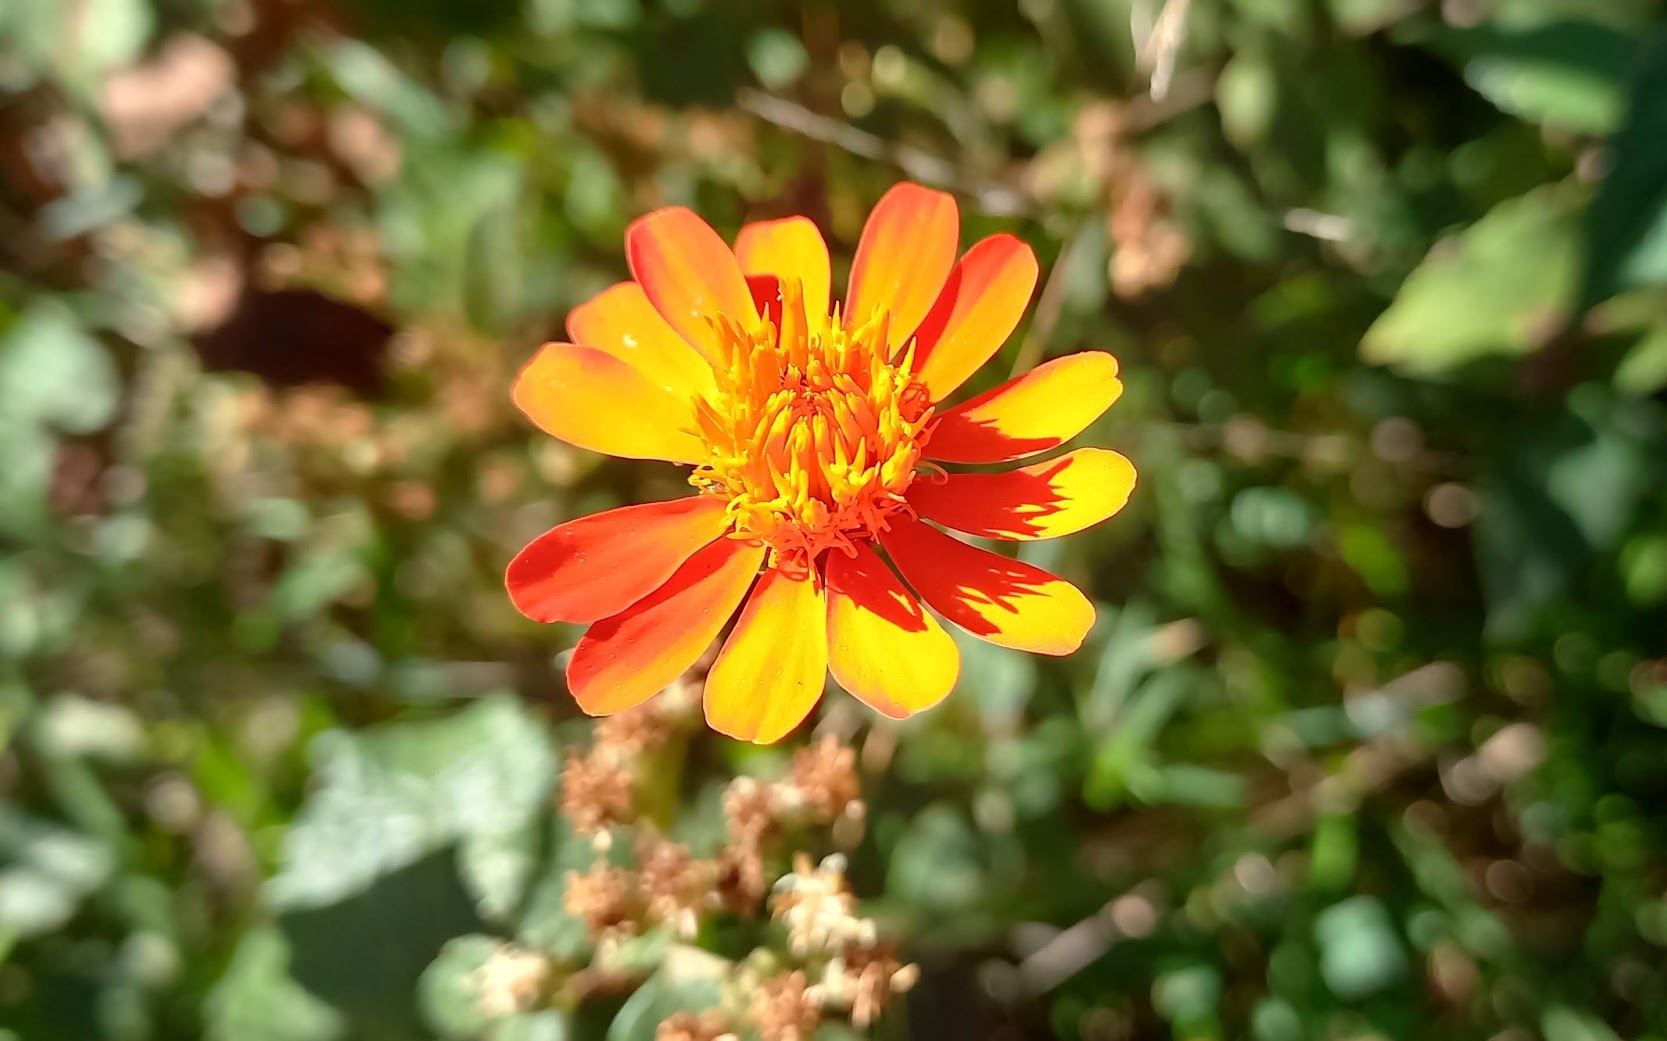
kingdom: Plantae
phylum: Tracheophyta
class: Magnoliopsida
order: Asterales
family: Asteraceae
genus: Pseudogynoxys
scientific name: Pseudogynoxys chenopodioides
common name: Mexican flamevine
